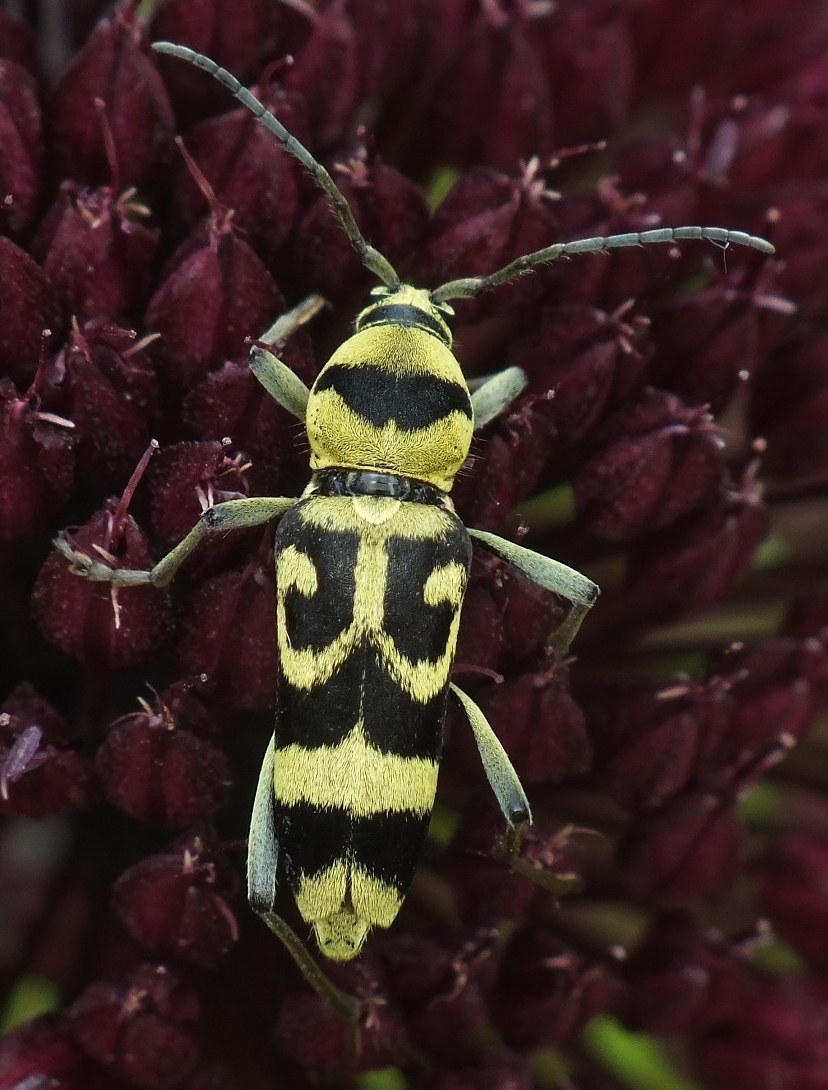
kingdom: Animalia
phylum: Arthropoda
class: Insecta
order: Coleoptera
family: Cerambycidae
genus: Chlorophorus
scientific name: Chlorophorus varius
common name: Grape wood borer
